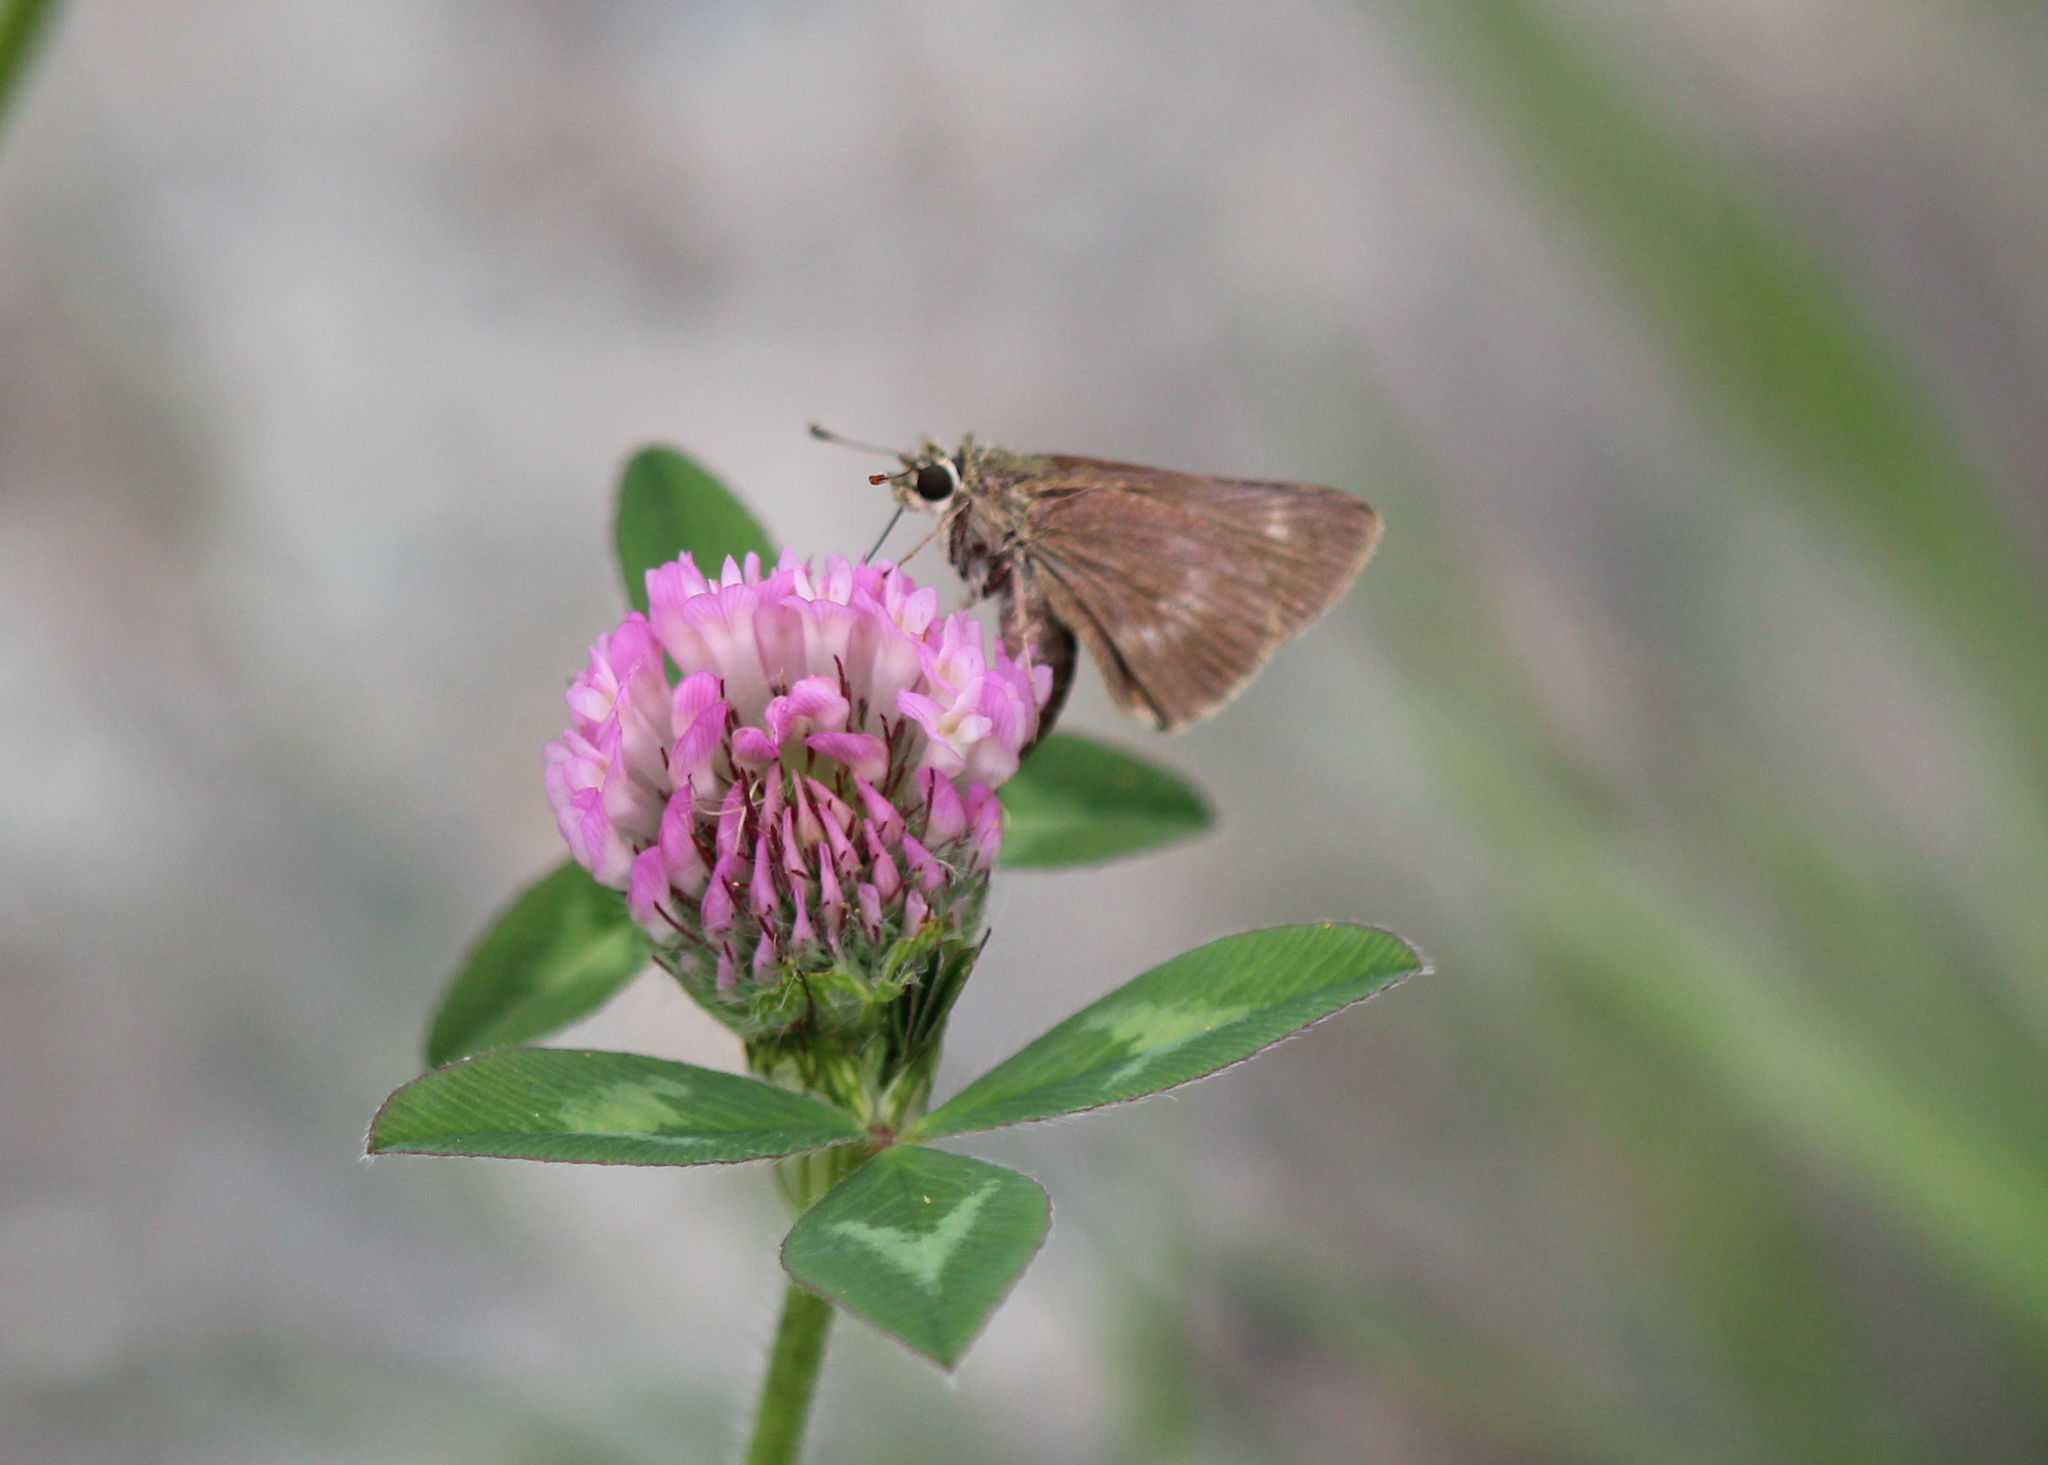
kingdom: Animalia
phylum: Arthropoda
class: Insecta
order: Lepidoptera
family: Hesperiidae
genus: Polites
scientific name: Polites egeremet
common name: Northern broken-dash
